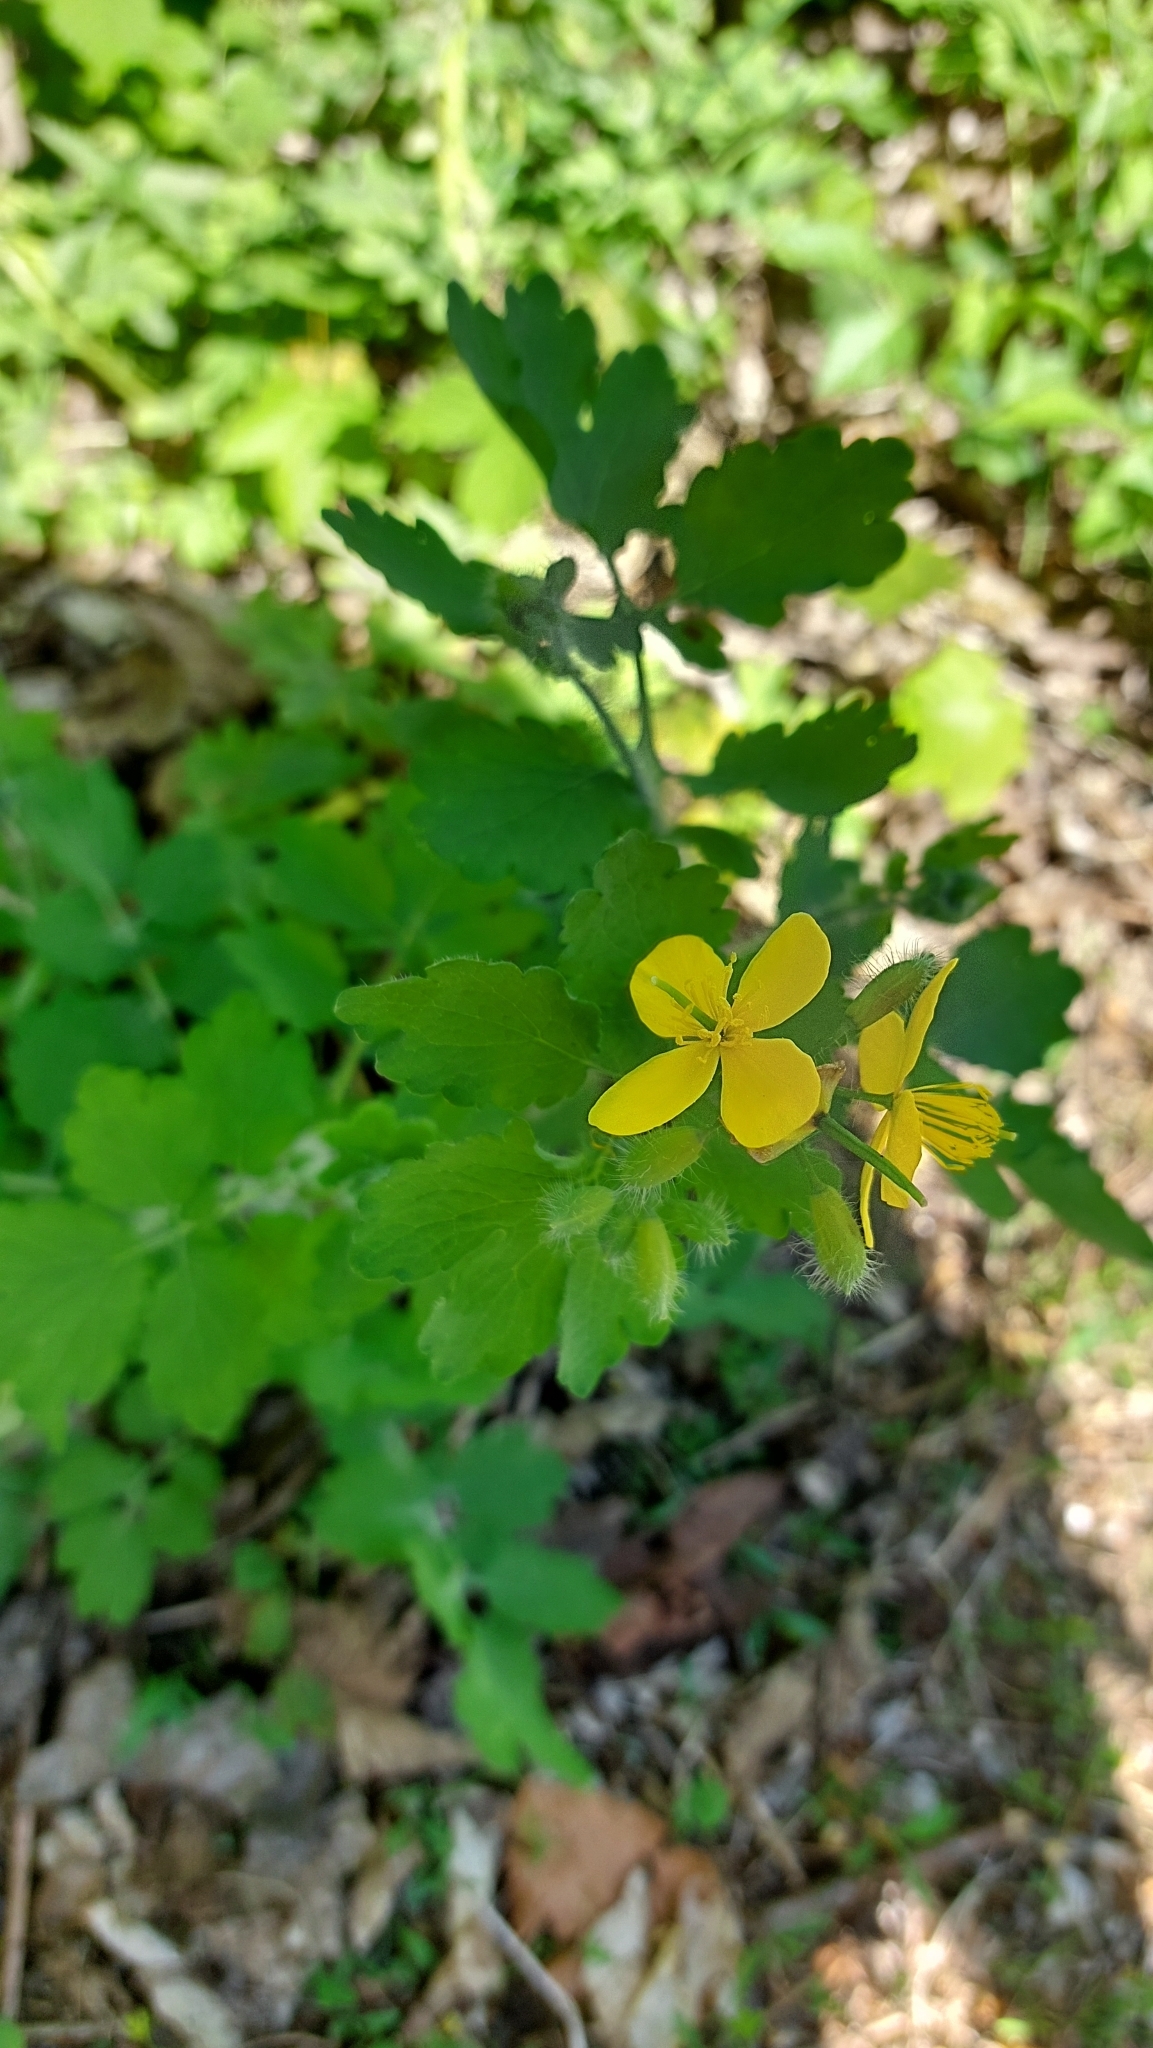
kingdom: Plantae
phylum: Tracheophyta
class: Magnoliopsida
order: Ranunculales
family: Papaveraceae
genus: Chelidonium
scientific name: Chelidonium majus
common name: Greater celandine
